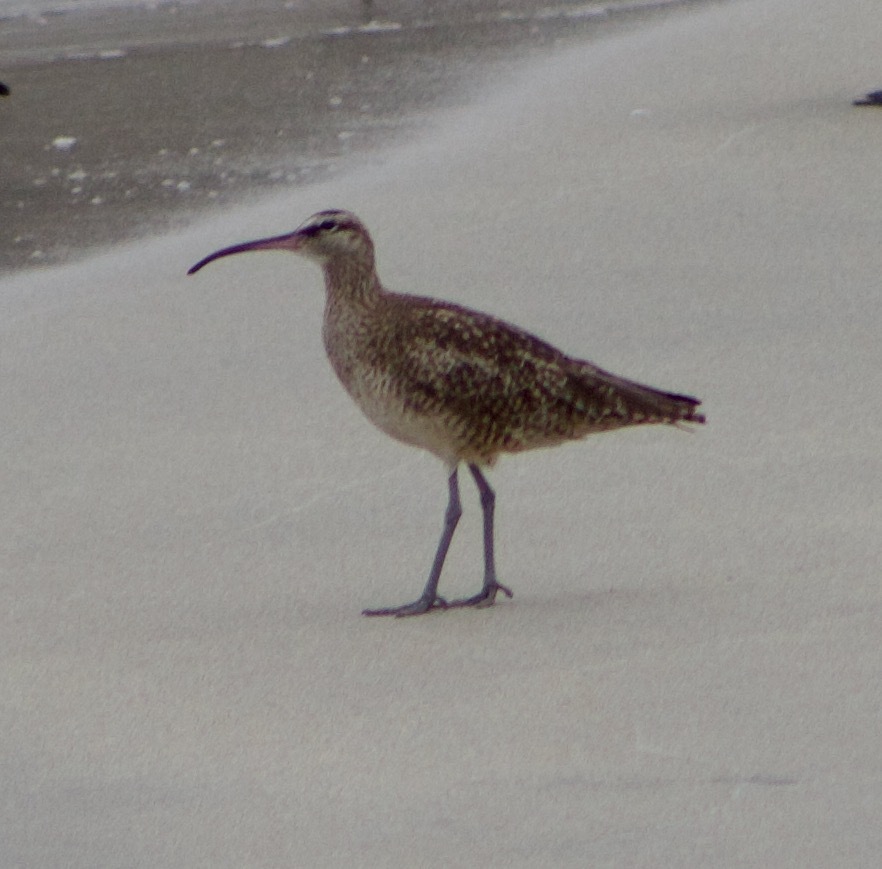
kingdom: Animalia
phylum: Chordata
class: Aves
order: Charadriiformes
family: Scolopacidae
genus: Numenius
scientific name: Numenius phaeopus
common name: Whimbrel
